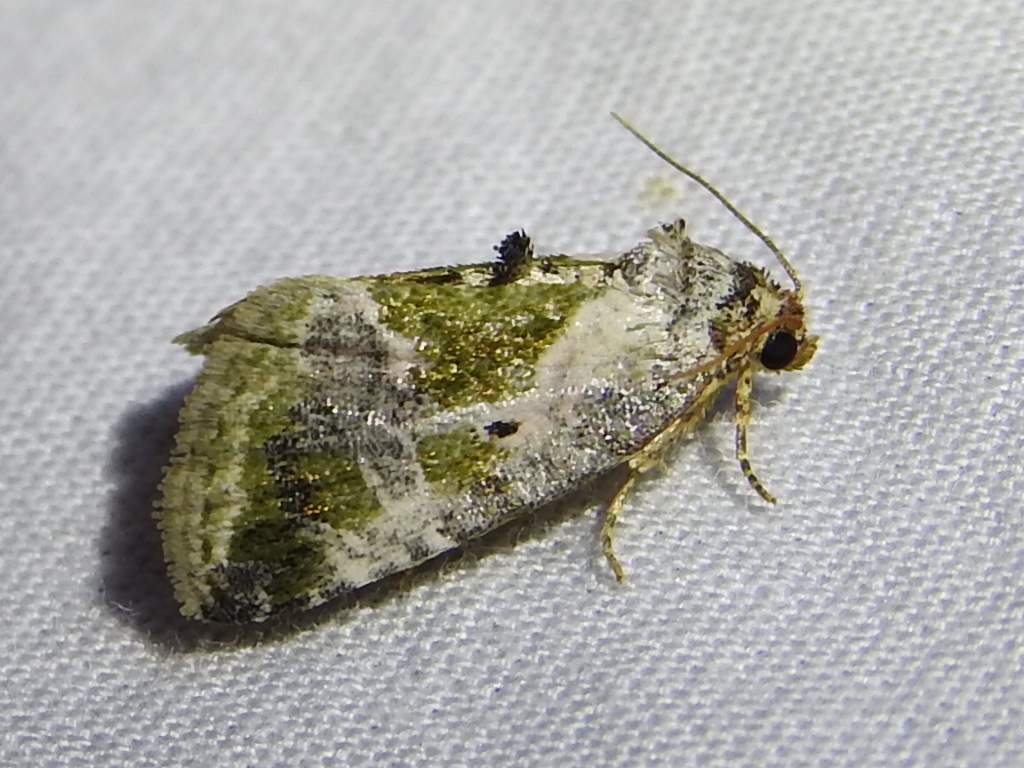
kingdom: Animalia
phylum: Arthropoda
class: Insecta
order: Lepidoptera
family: Noctuidae
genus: Maliattha
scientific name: Maliattha synochitis
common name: Black-dotted glyph
